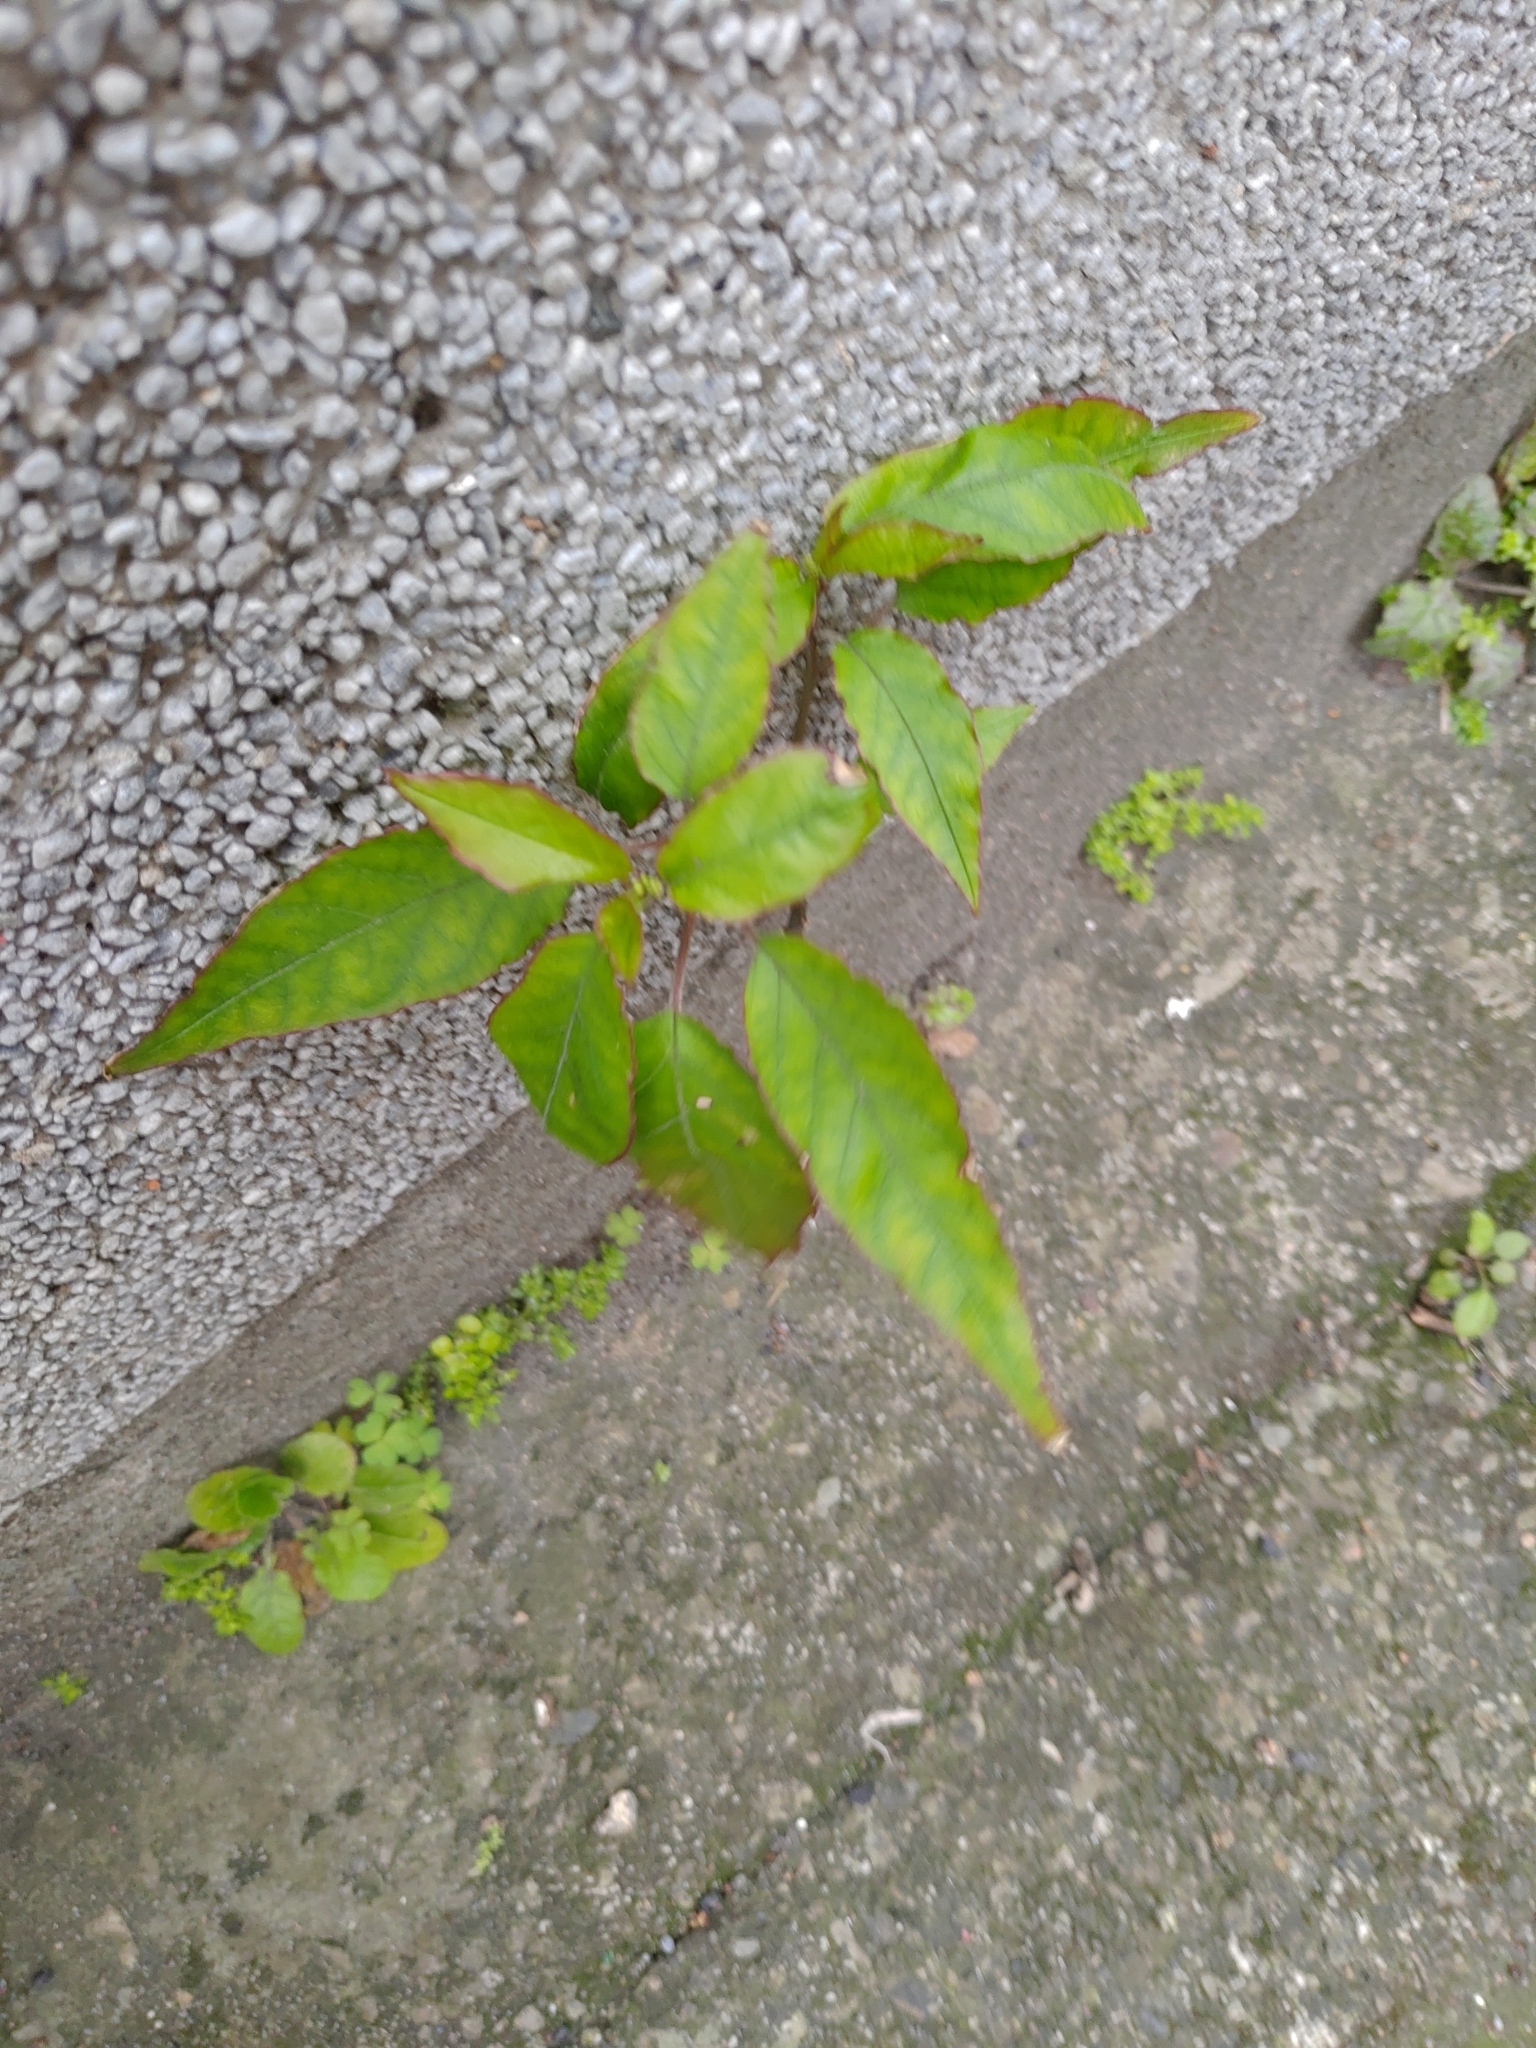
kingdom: Plantae
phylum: Tracheophyta
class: Magnoliopsida
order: Caryophyllales
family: Phytolaccaceae
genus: Rivina
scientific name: Rivina humilis
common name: Rougeplant
